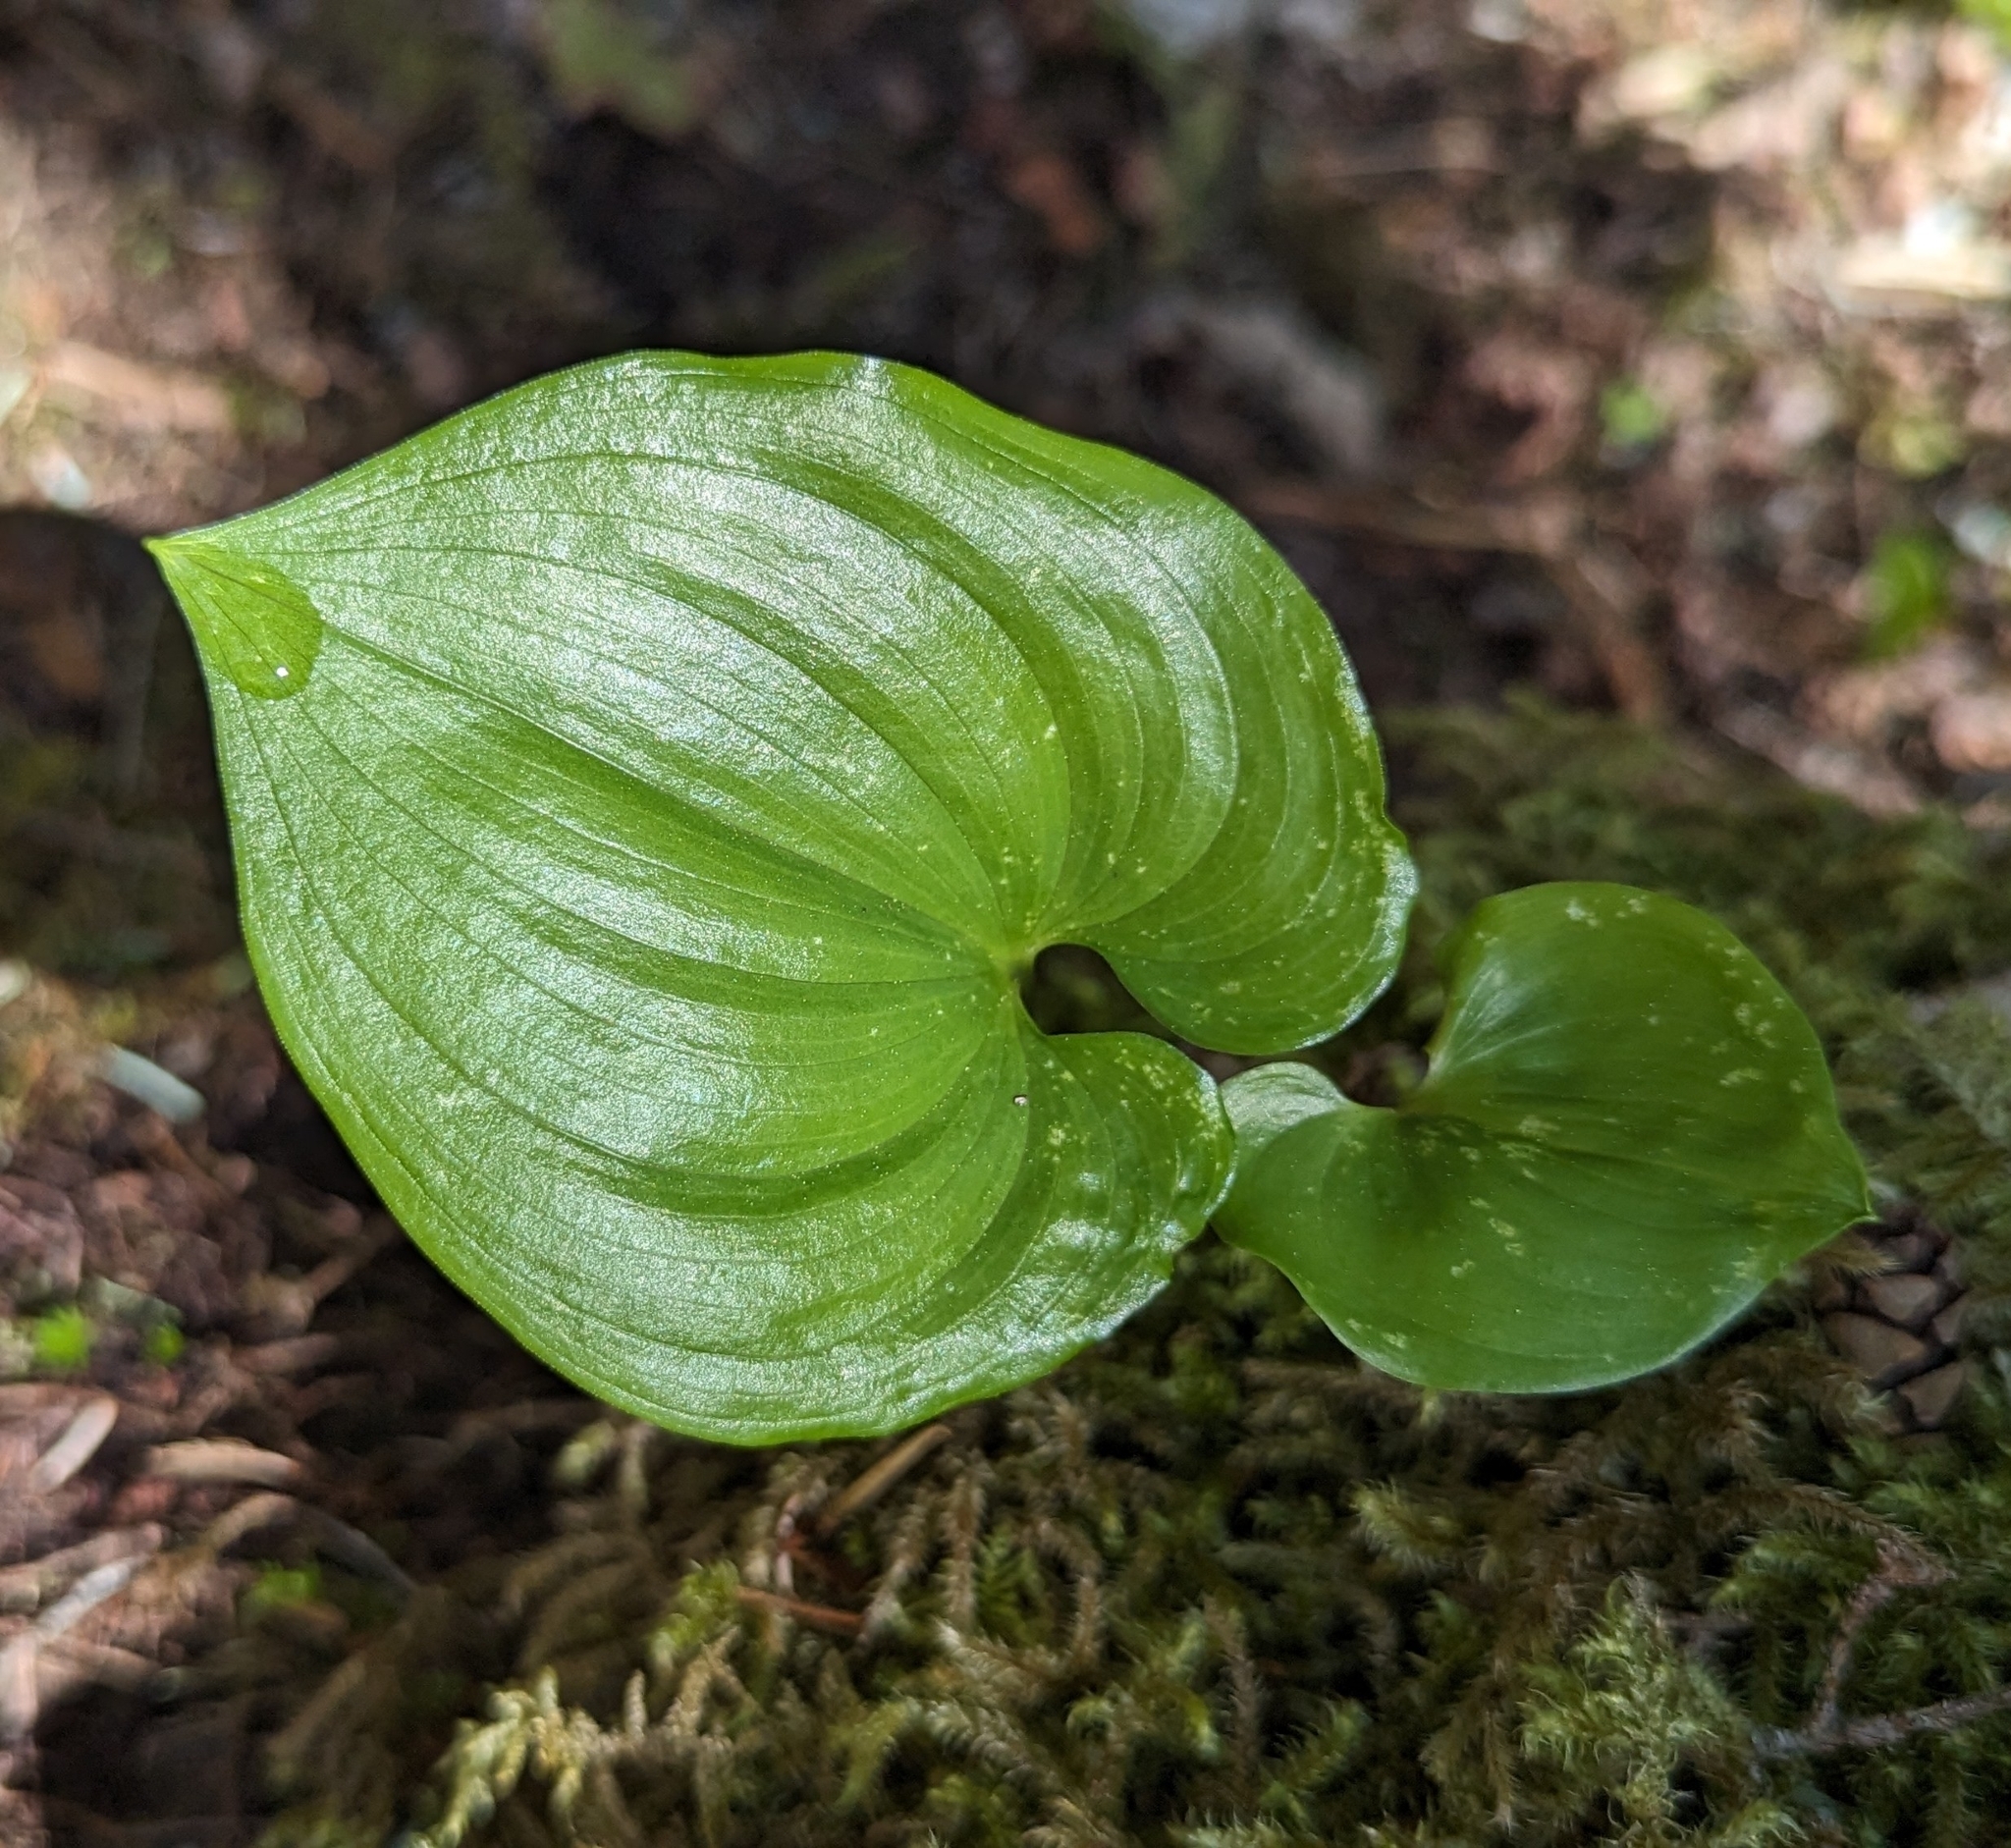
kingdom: Plantae
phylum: Tracheophyta
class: Liliopsida
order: Asparagales
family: Asparagaceae
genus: Maianthemum
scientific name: Maianthemum dilatatum
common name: False lily-of-the-valley
